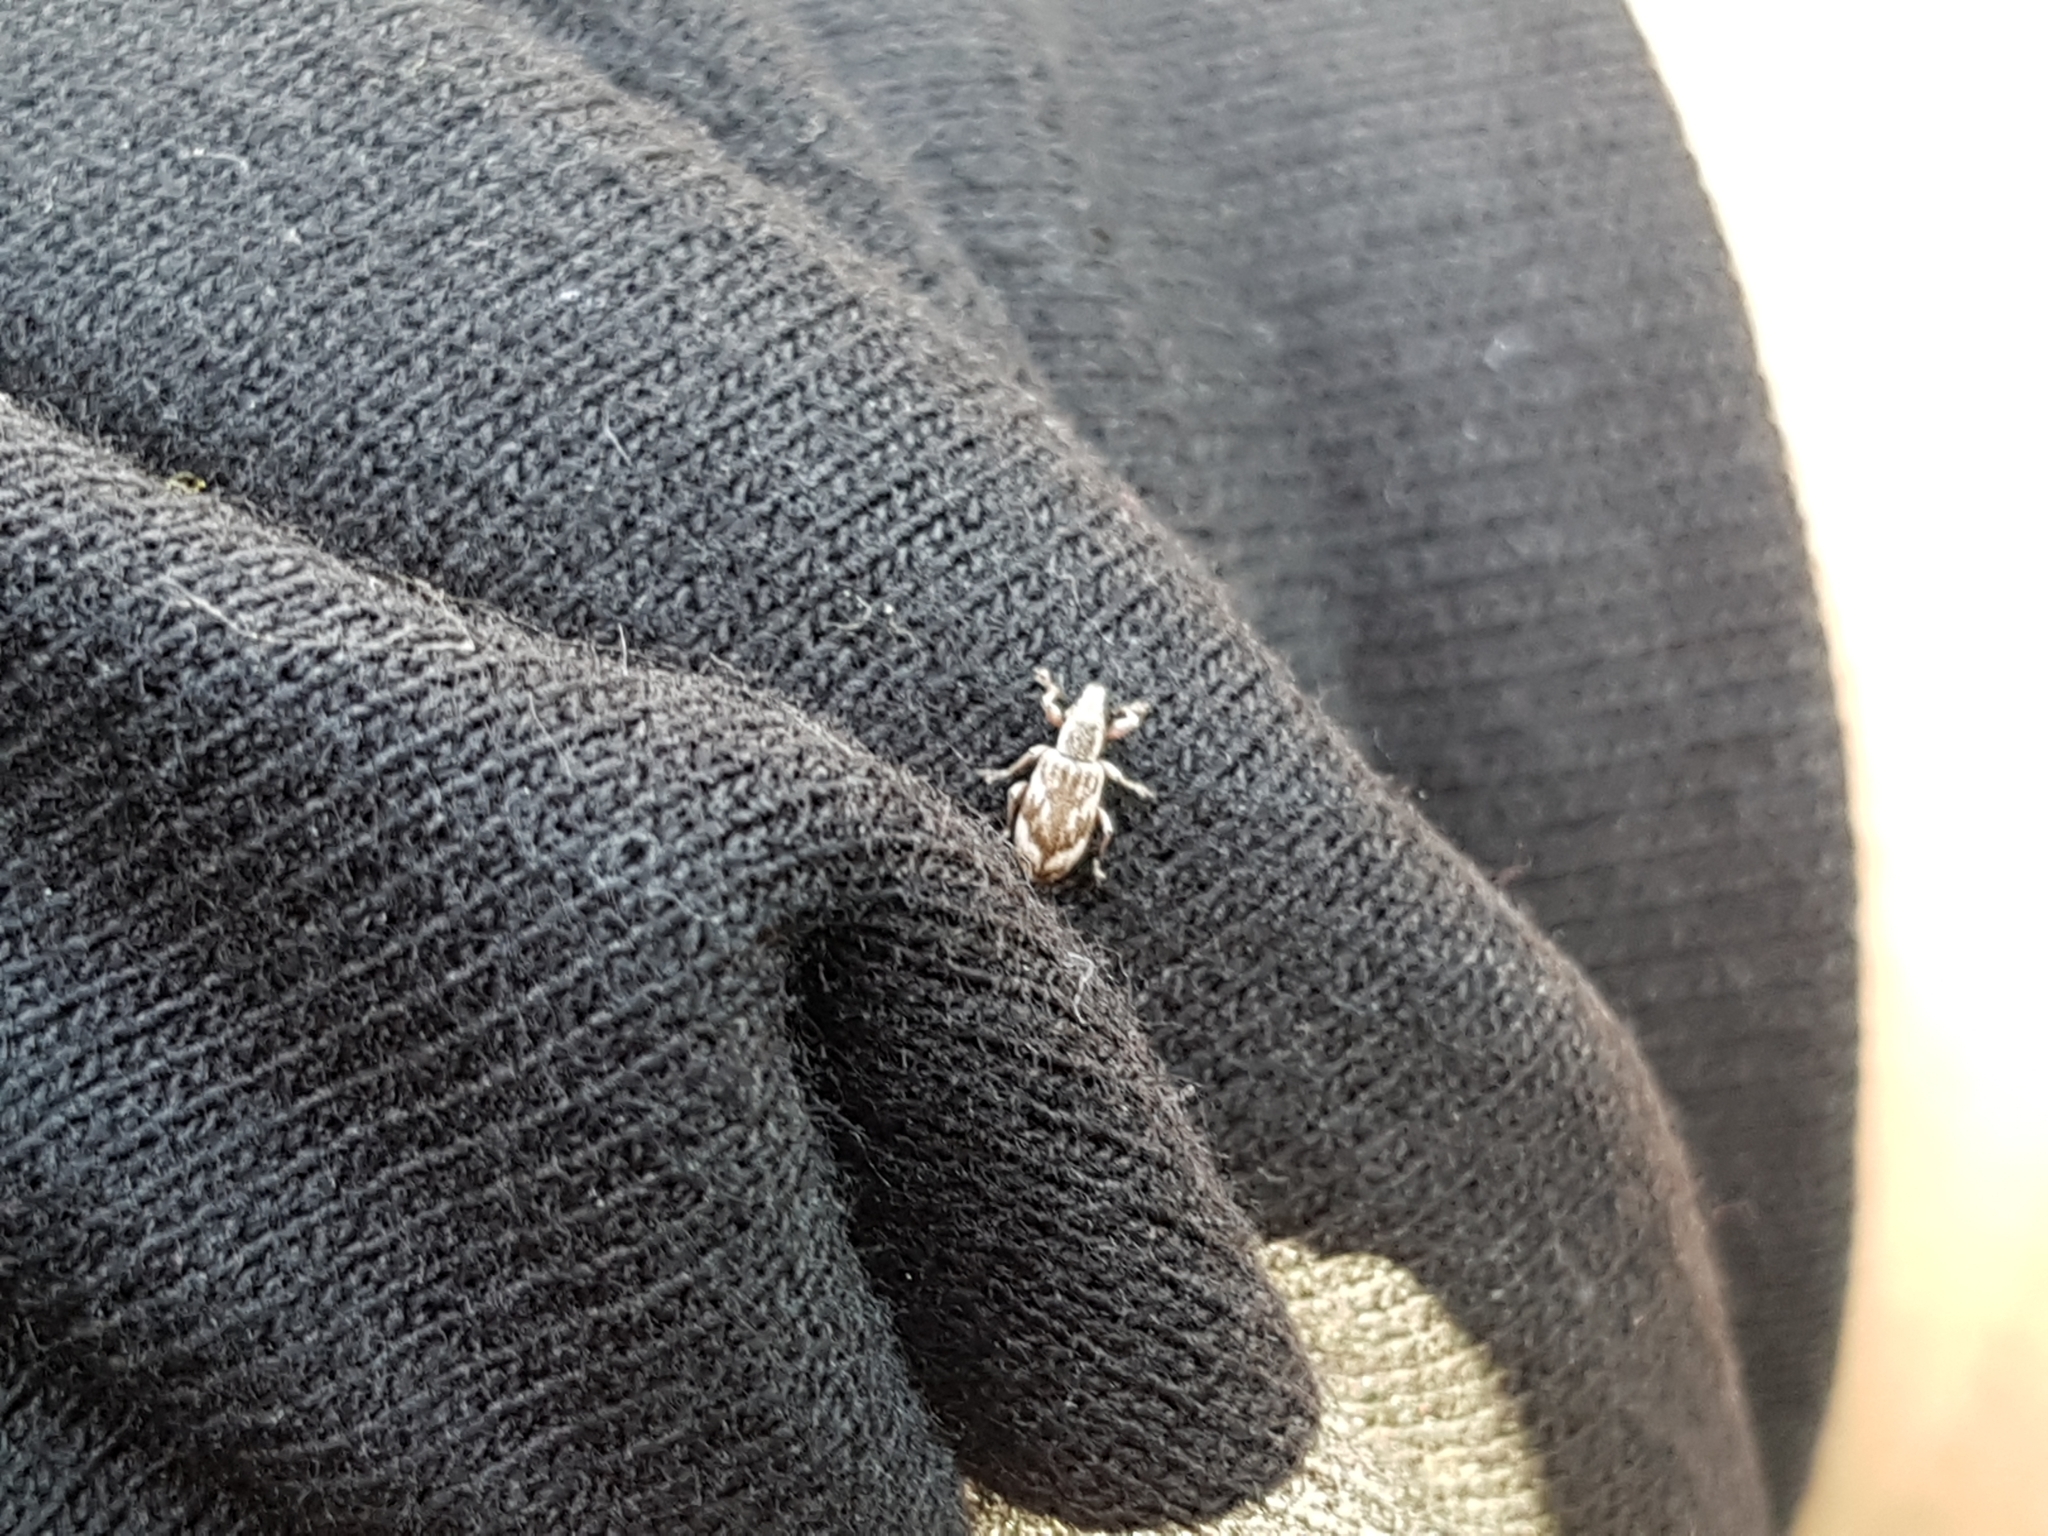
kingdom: Animalia
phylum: Arthropoda
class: Insecta
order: Coleoptera
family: Curculionidae
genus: Polydrusus
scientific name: Polydrusus tereticollis
